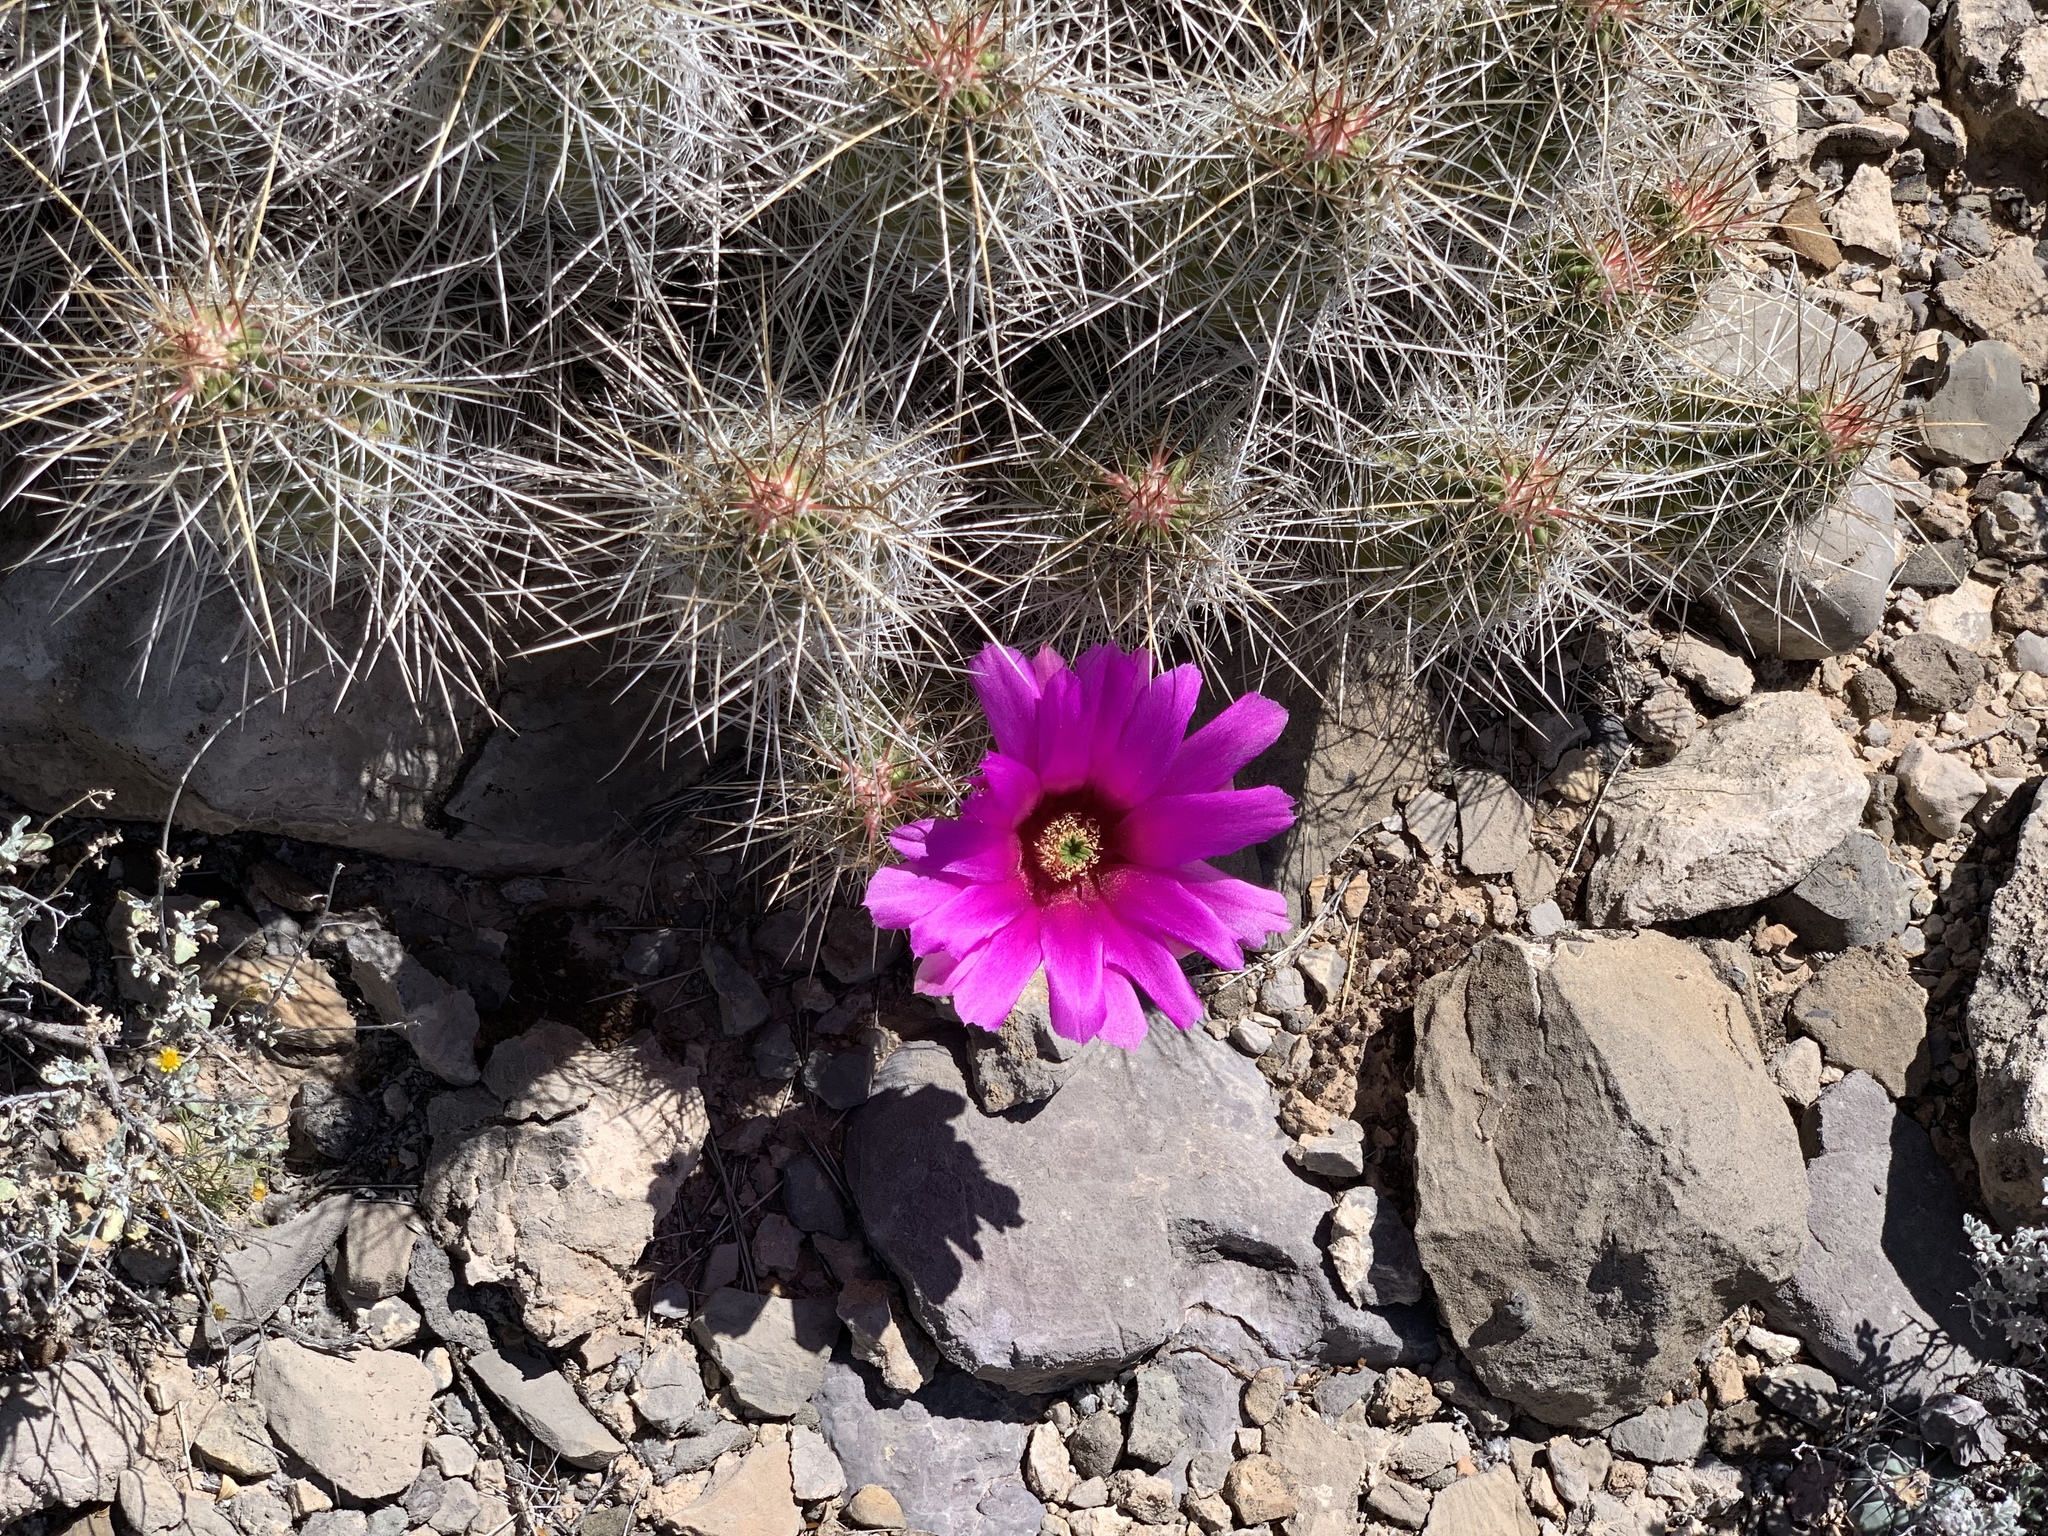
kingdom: Plantae
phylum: Tracheophyta
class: Magnoliopsida
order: Caryophyllales
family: Cactaceae
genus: Echinocereus
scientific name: Echinocereus stramineus
